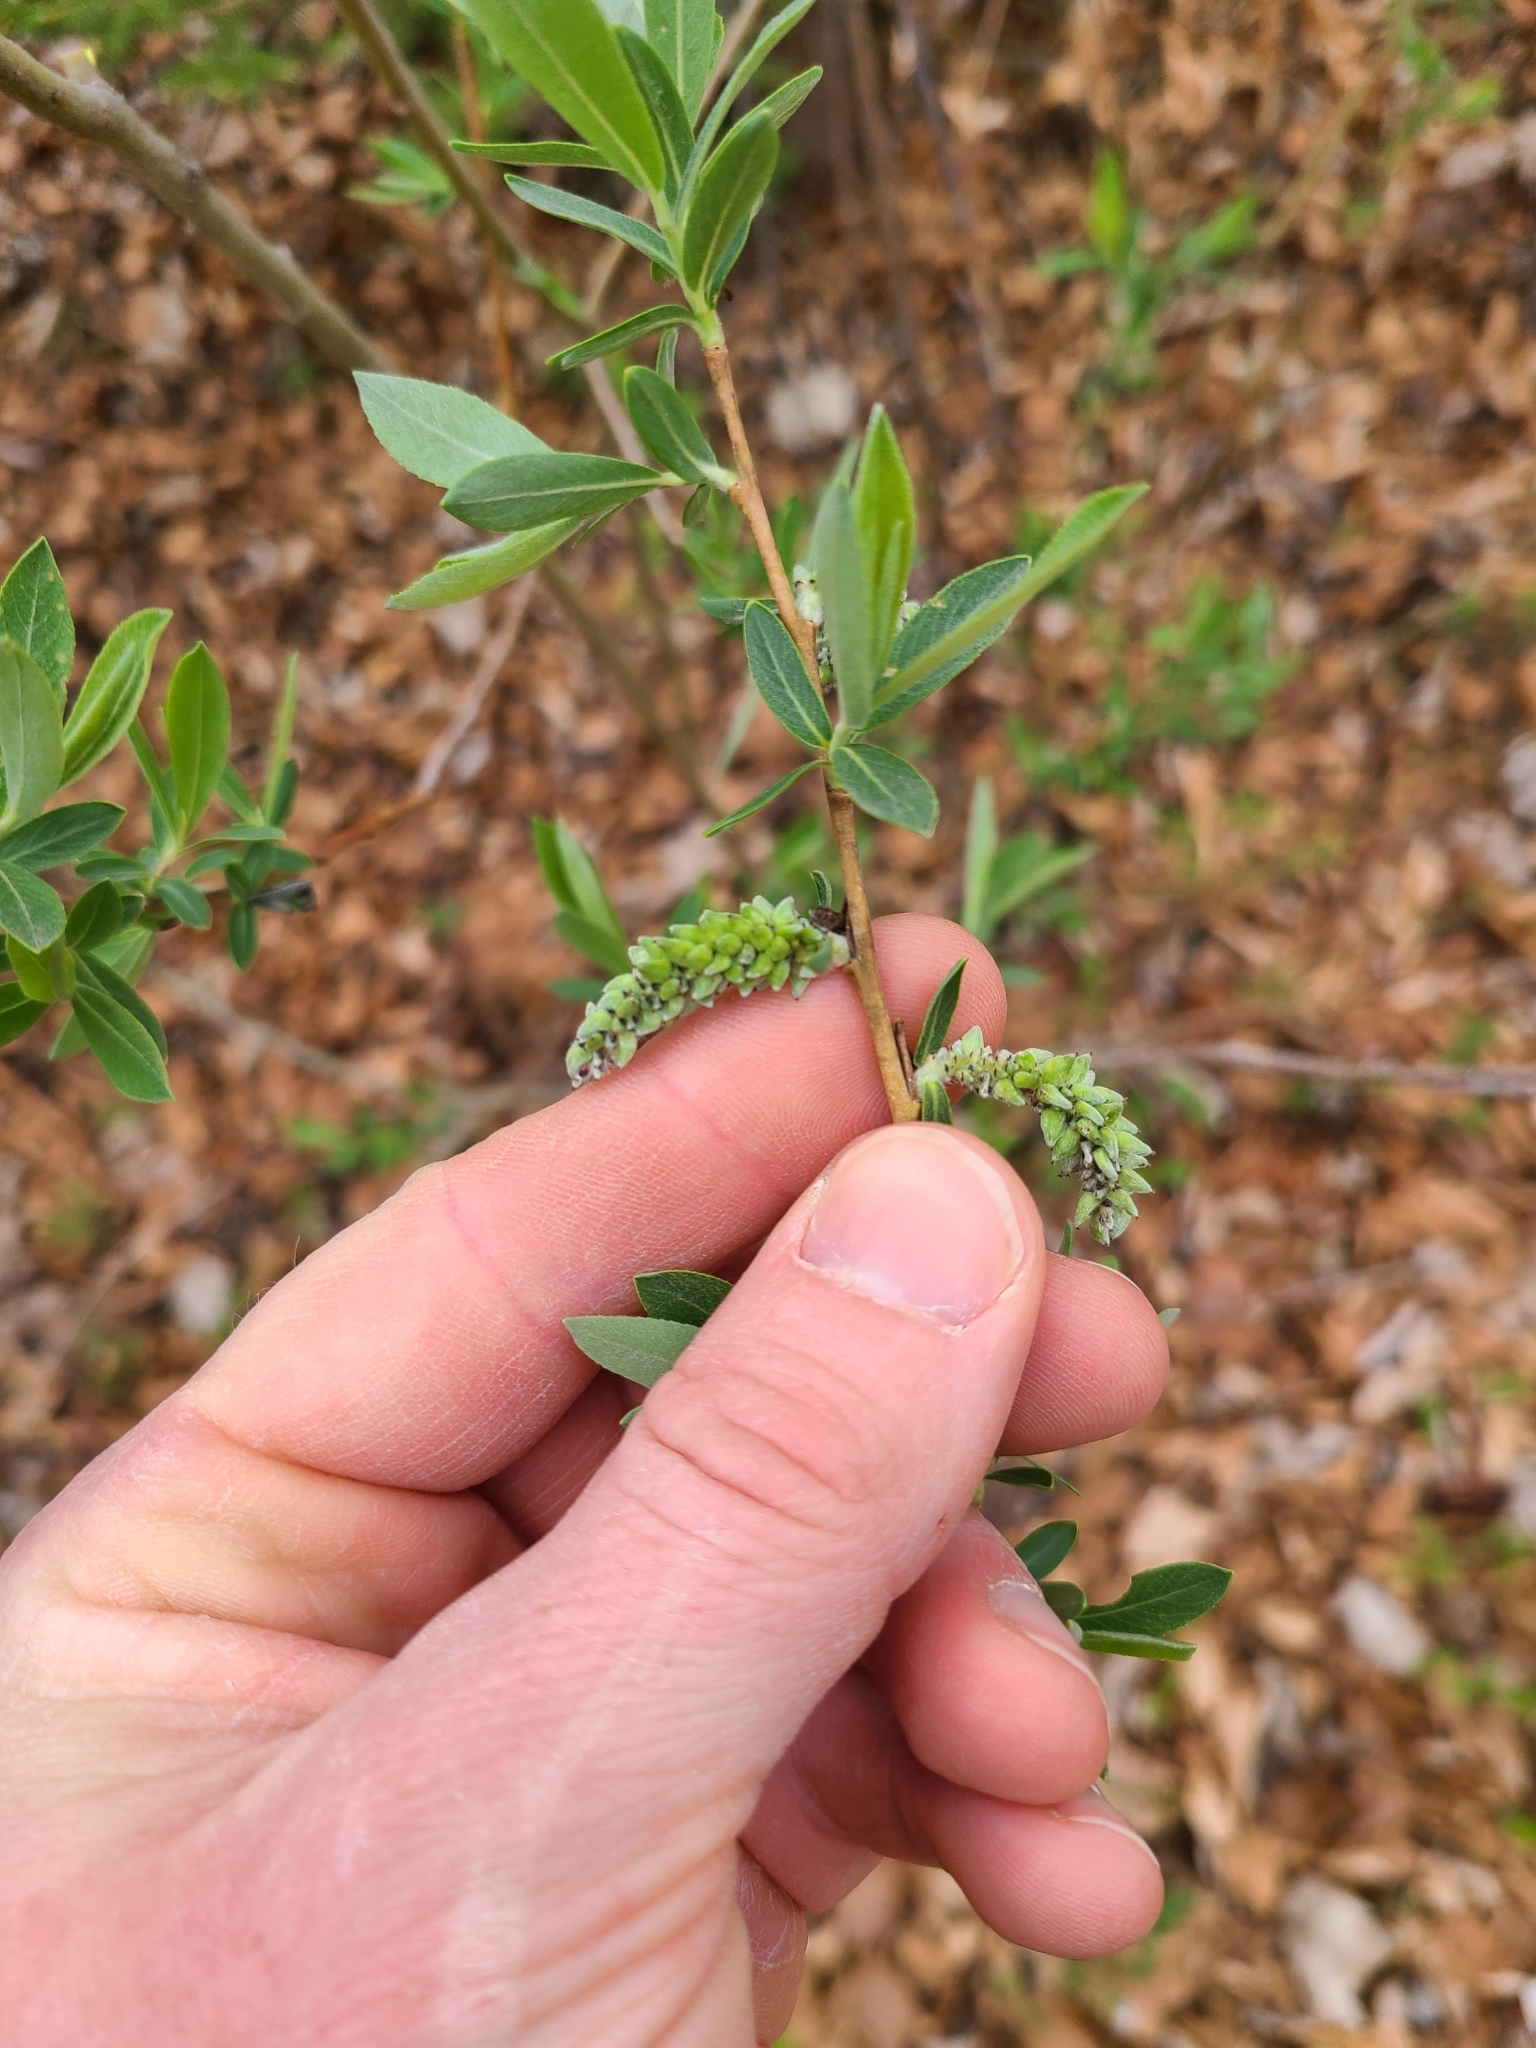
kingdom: Plantae
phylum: Tracheophyta
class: Magnoliopsida
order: Malpighiales
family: Salicaceae
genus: Salix
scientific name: Salix purpurea
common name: Purple willow
